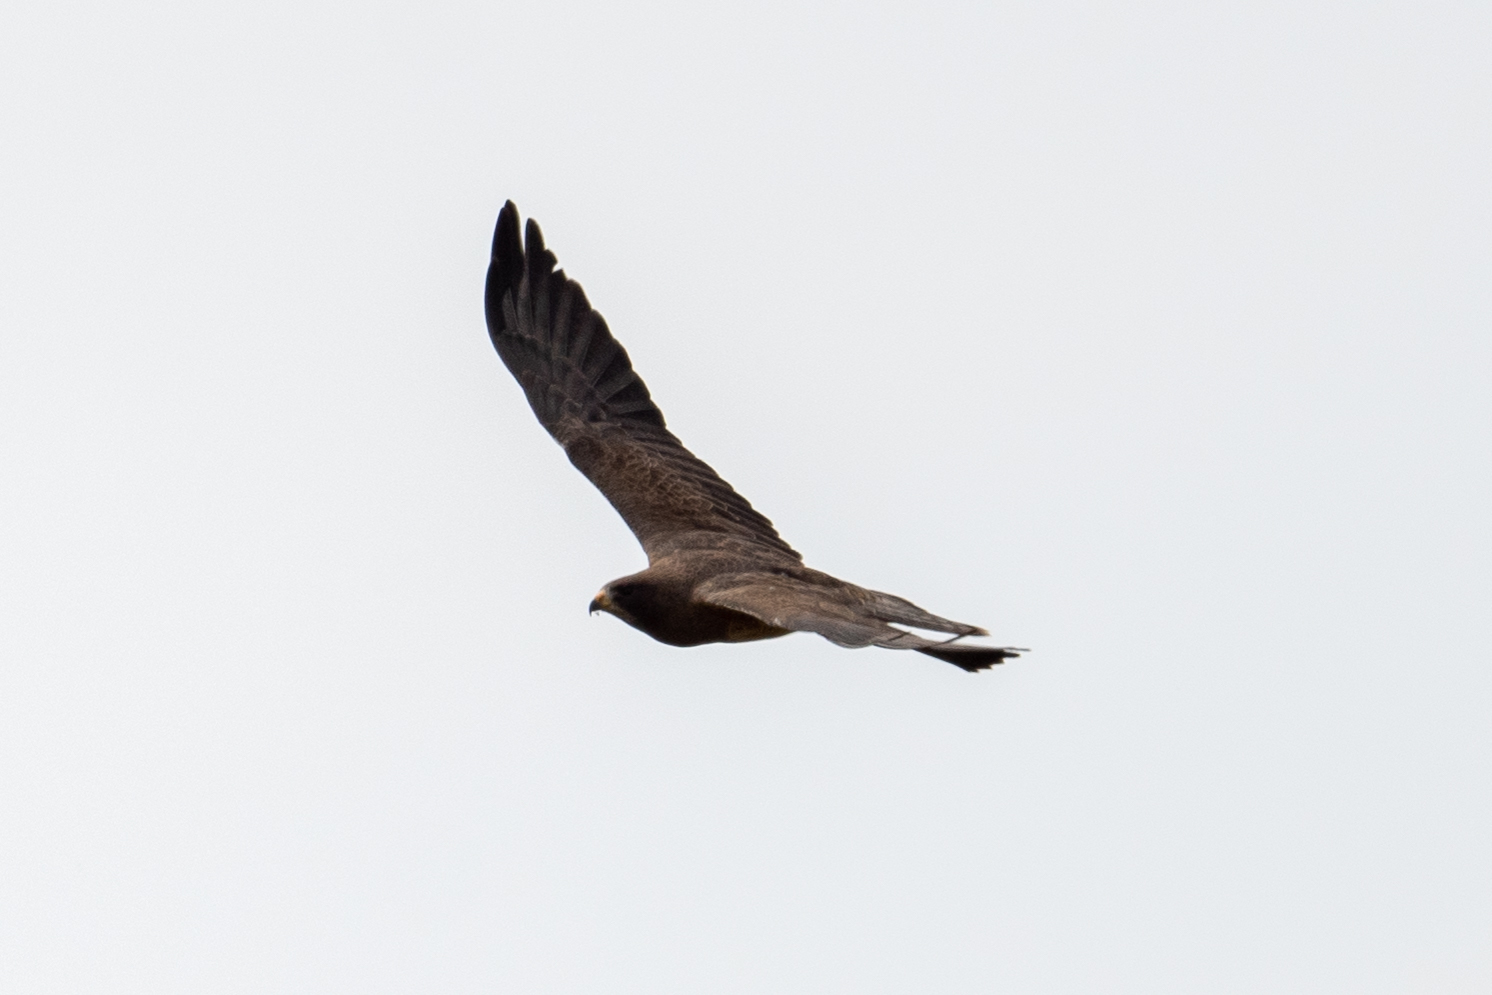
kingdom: Animalia
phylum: Chordata
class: Aves
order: Accipitriformes
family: Accipitridae
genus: Buteo
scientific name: Buteo swainsoni
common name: Swainson's hawk
